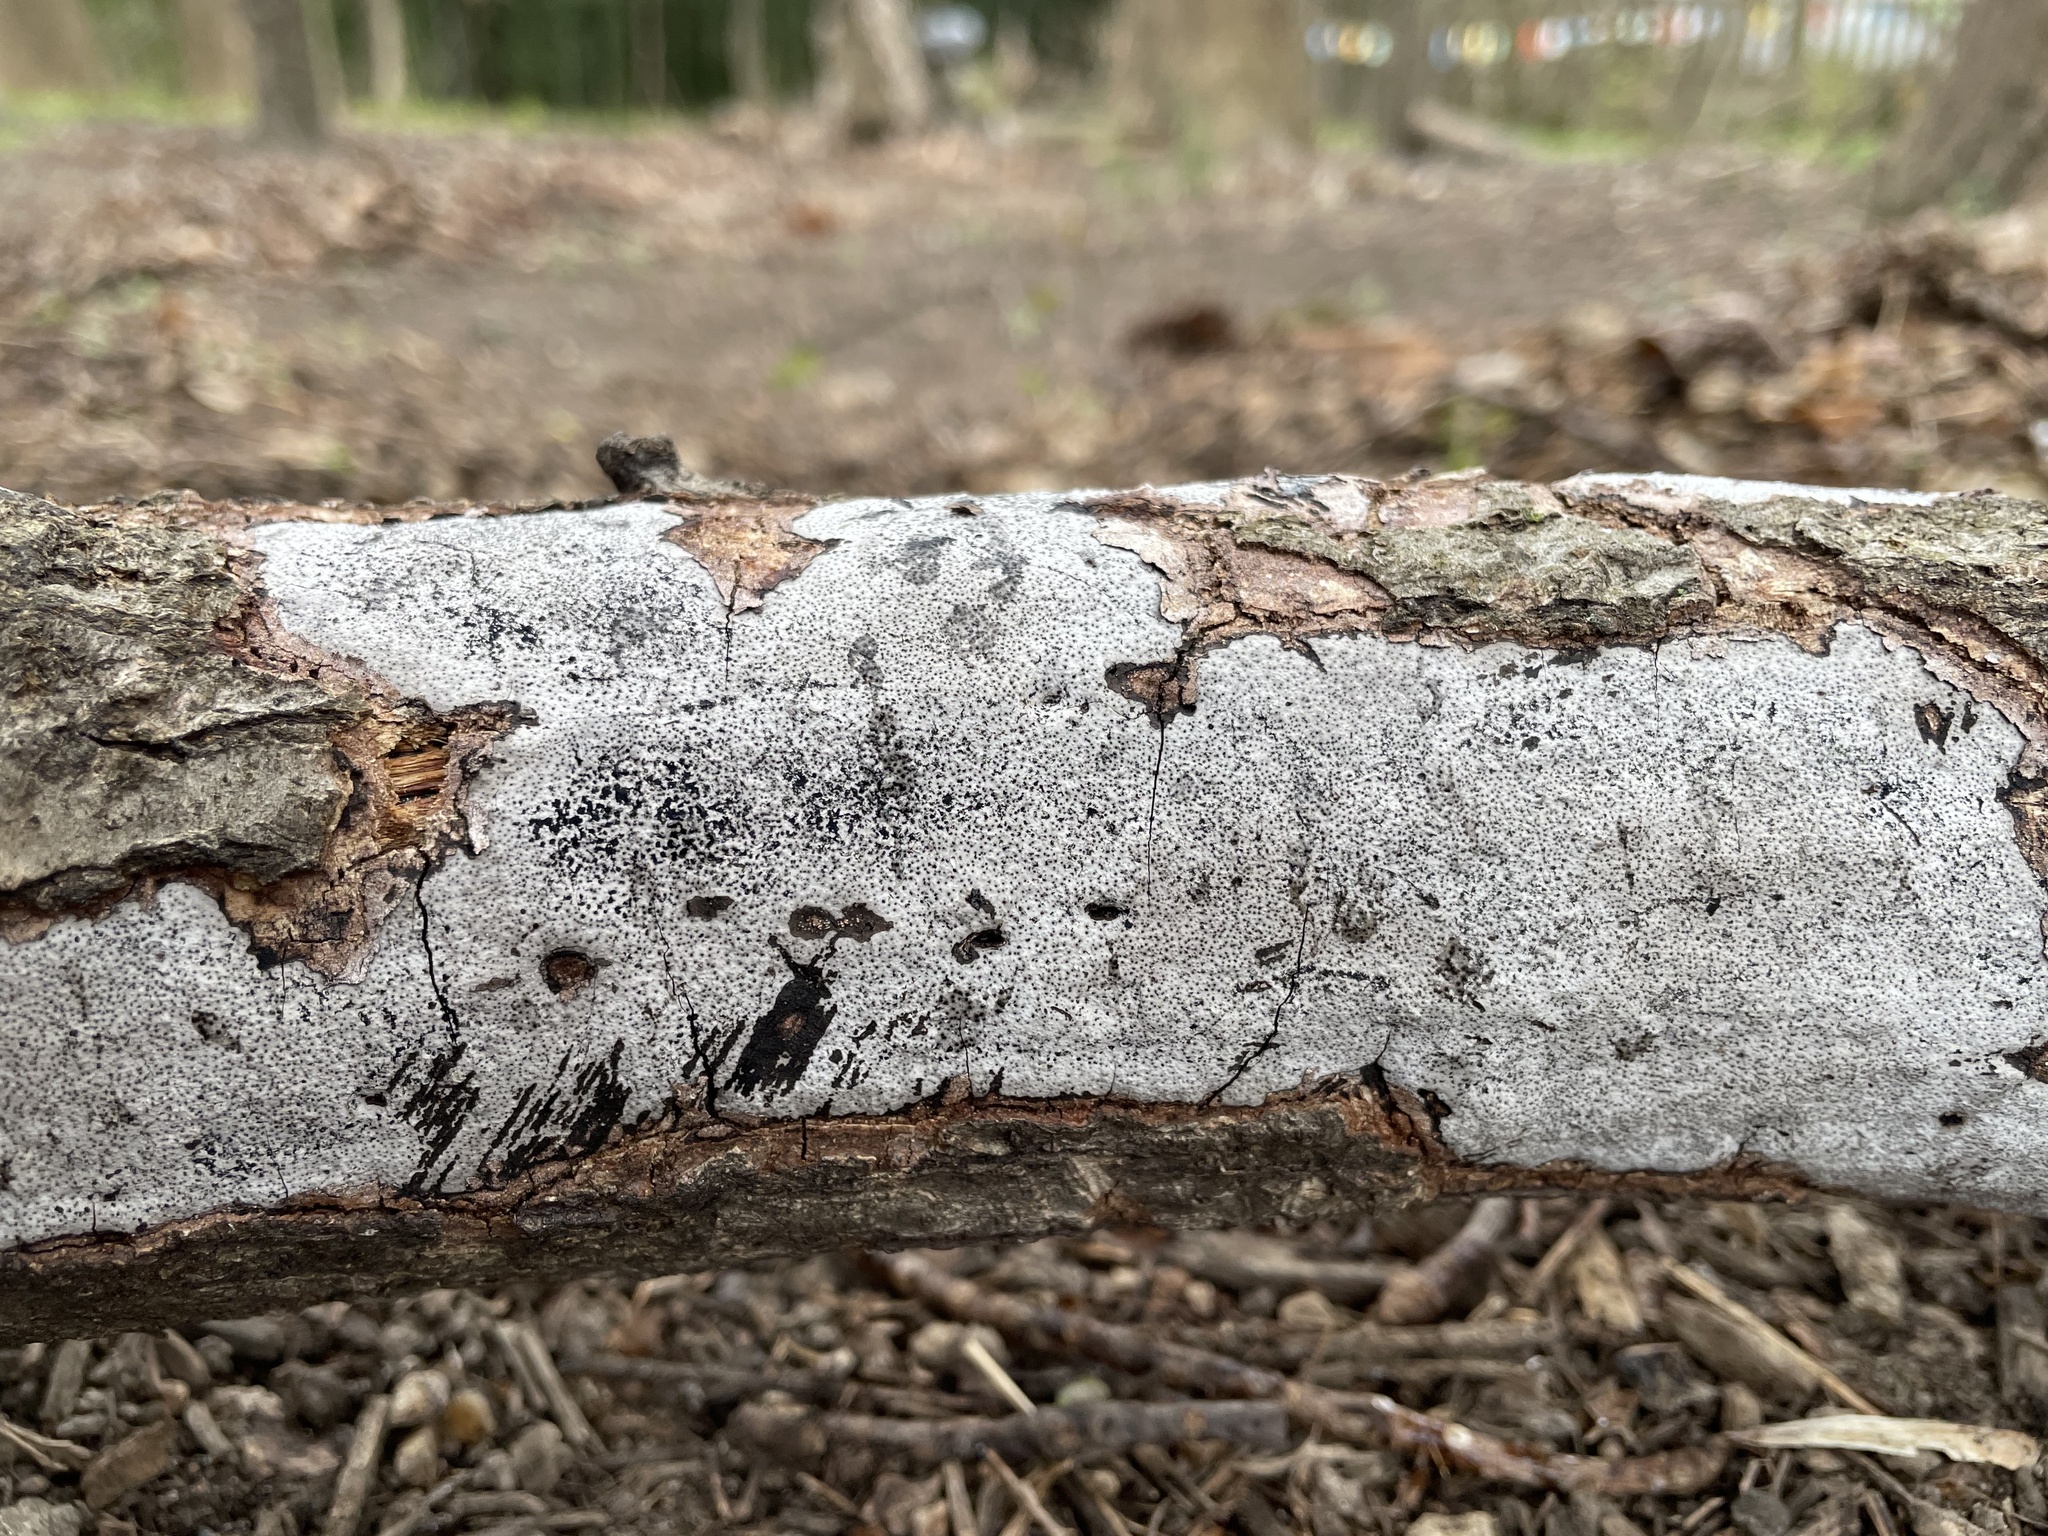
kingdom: Fungi
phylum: Ascomycota
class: Sordariomycetes
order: Xylariales
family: Graphostromataceae
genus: Biscogniauxia
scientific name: Biscogniauxia atropunctata
